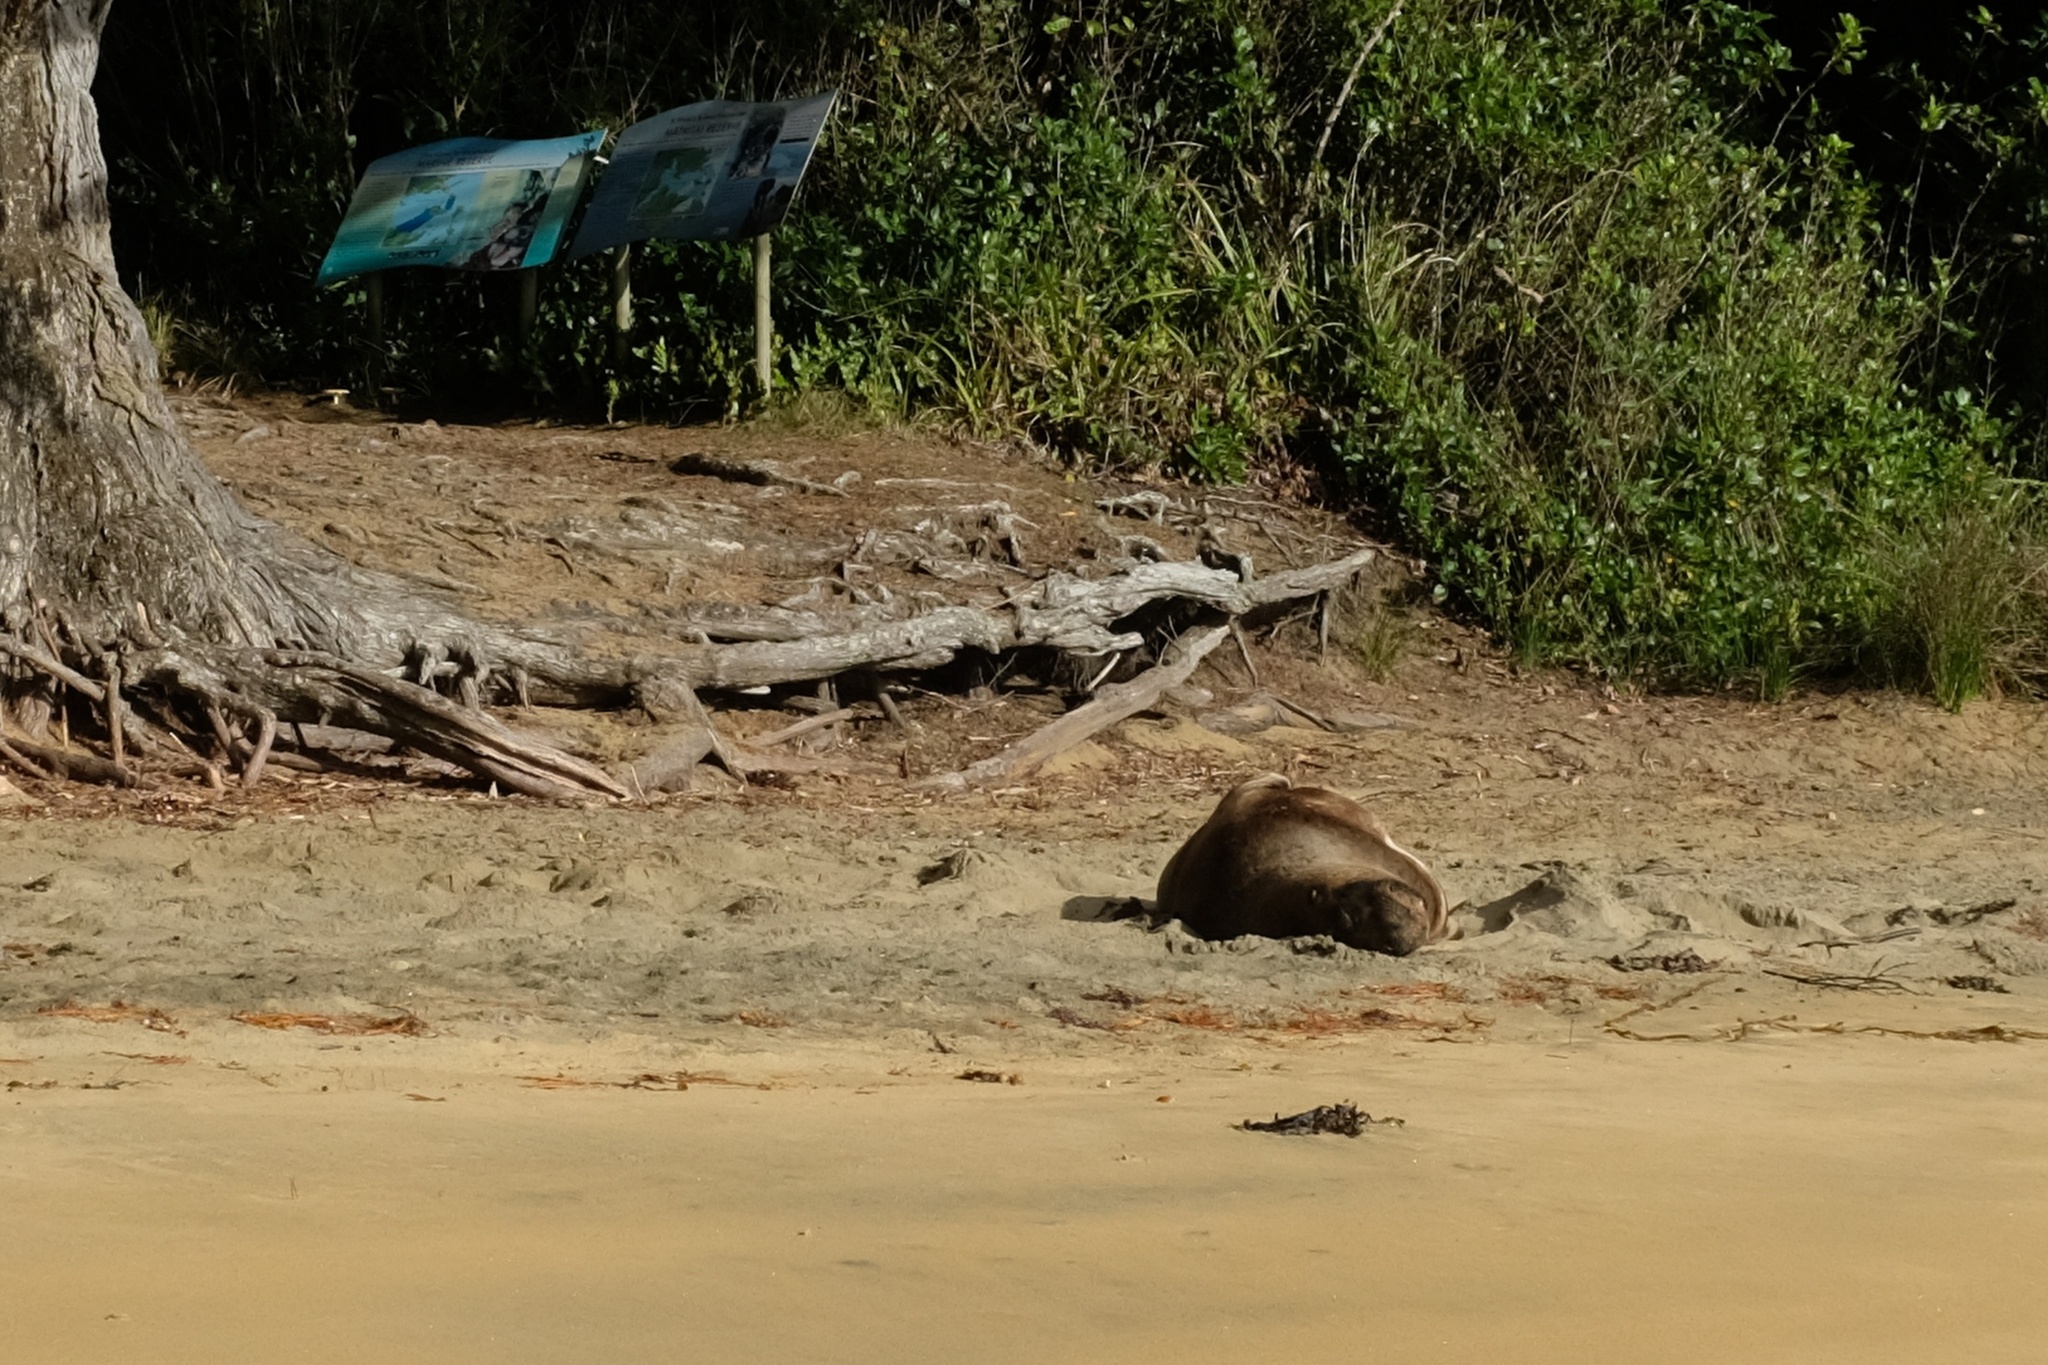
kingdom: Animalia
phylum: Chordata
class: Mammalia
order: Carnivora
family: Otariidae
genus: Phocarctos
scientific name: Phocarctos hookeri
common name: New zealand sea lion
